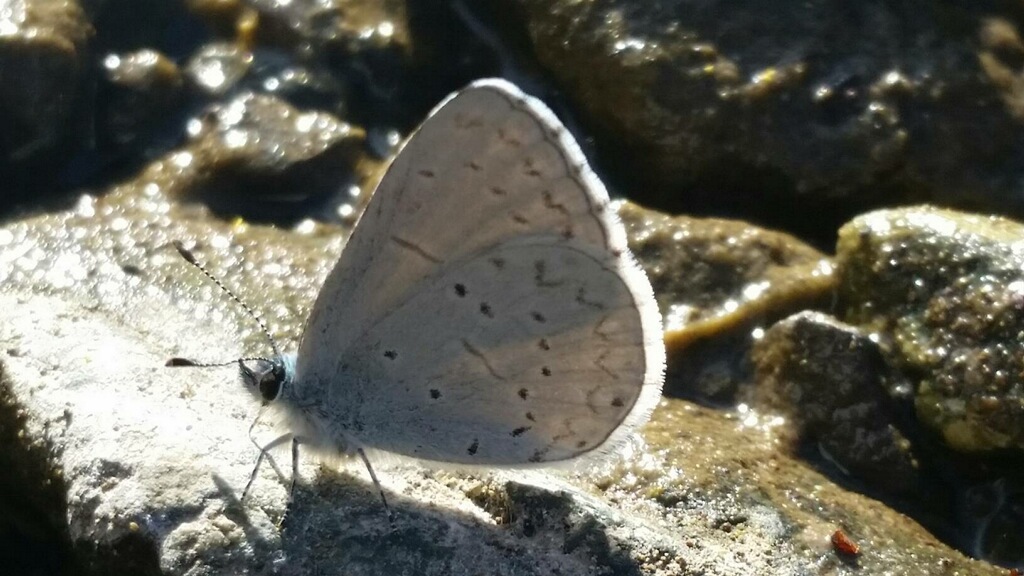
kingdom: Animalia
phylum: Arthropoda
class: Insecta
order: Lepidoptera
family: Lycaenidae
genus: Celastrina
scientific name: Celastrina ladon
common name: Spring azure
